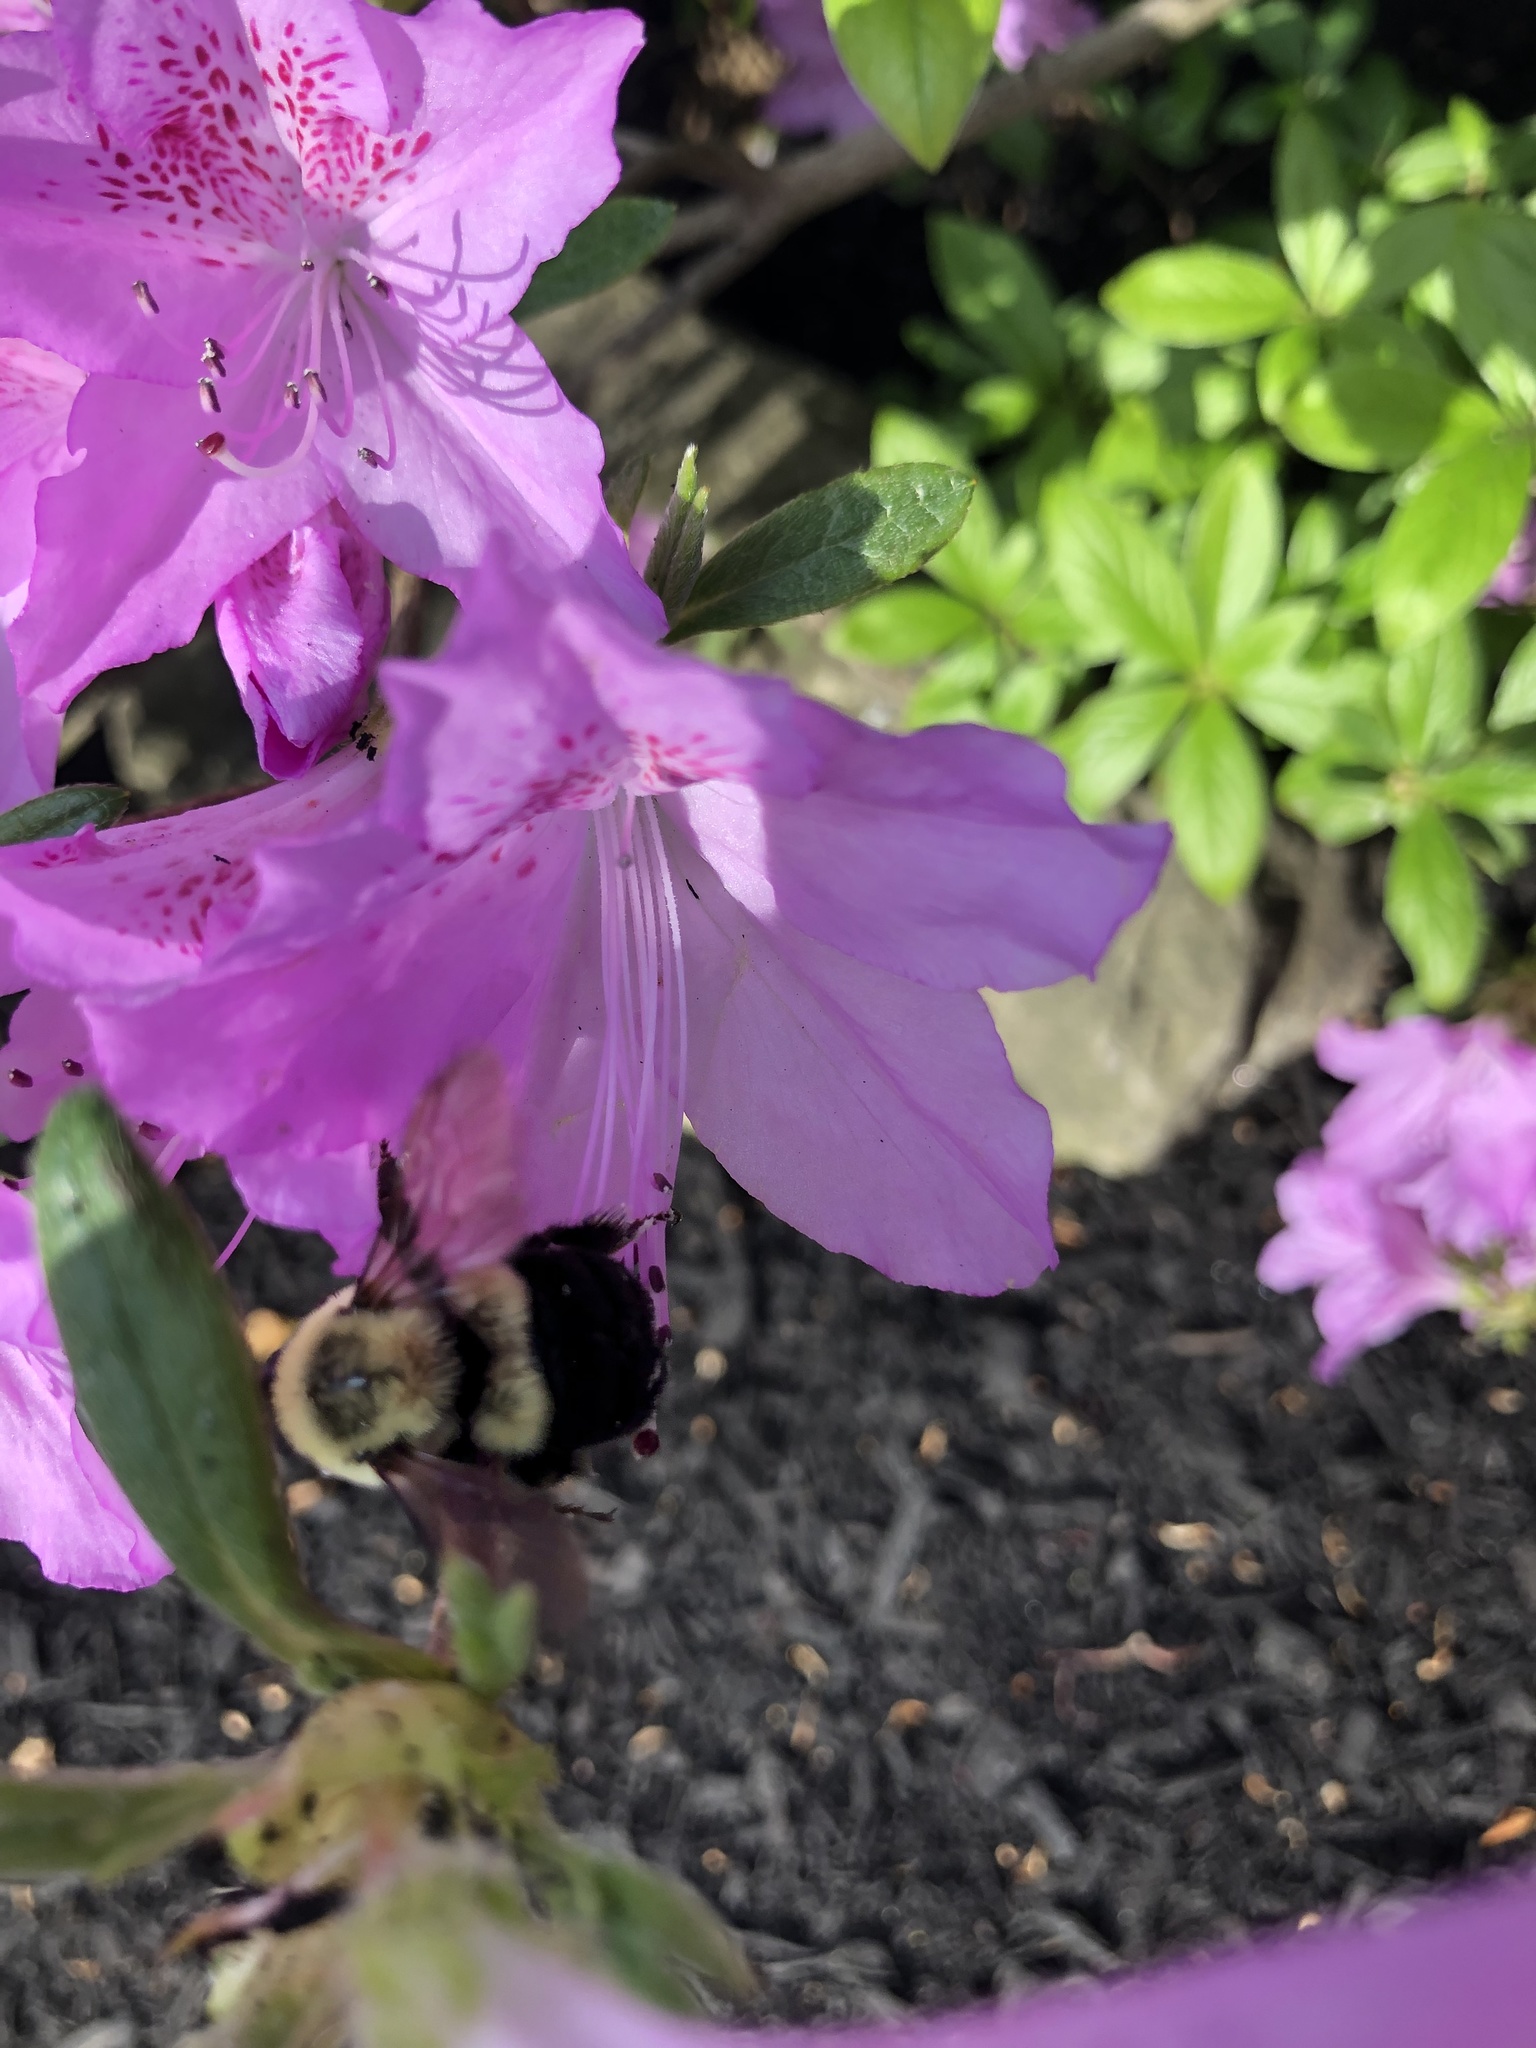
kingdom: Animalia
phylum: Arthropoda
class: Insecta
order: Hymenoptera
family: Apidae
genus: Bombus
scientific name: Bombus impatiens
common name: Common eastern bumble bee
